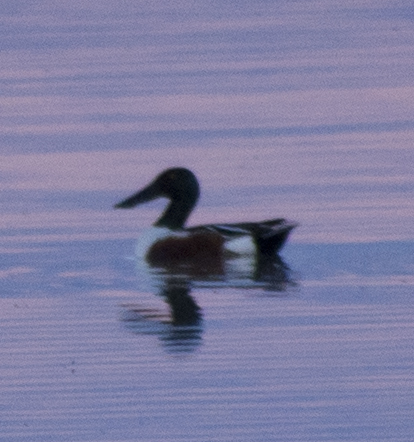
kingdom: Animalia
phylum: Chordata
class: Aves
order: Anseriformes
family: Anatidae
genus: Spatula
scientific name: Spatula clypeata
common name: Northern shoveler
